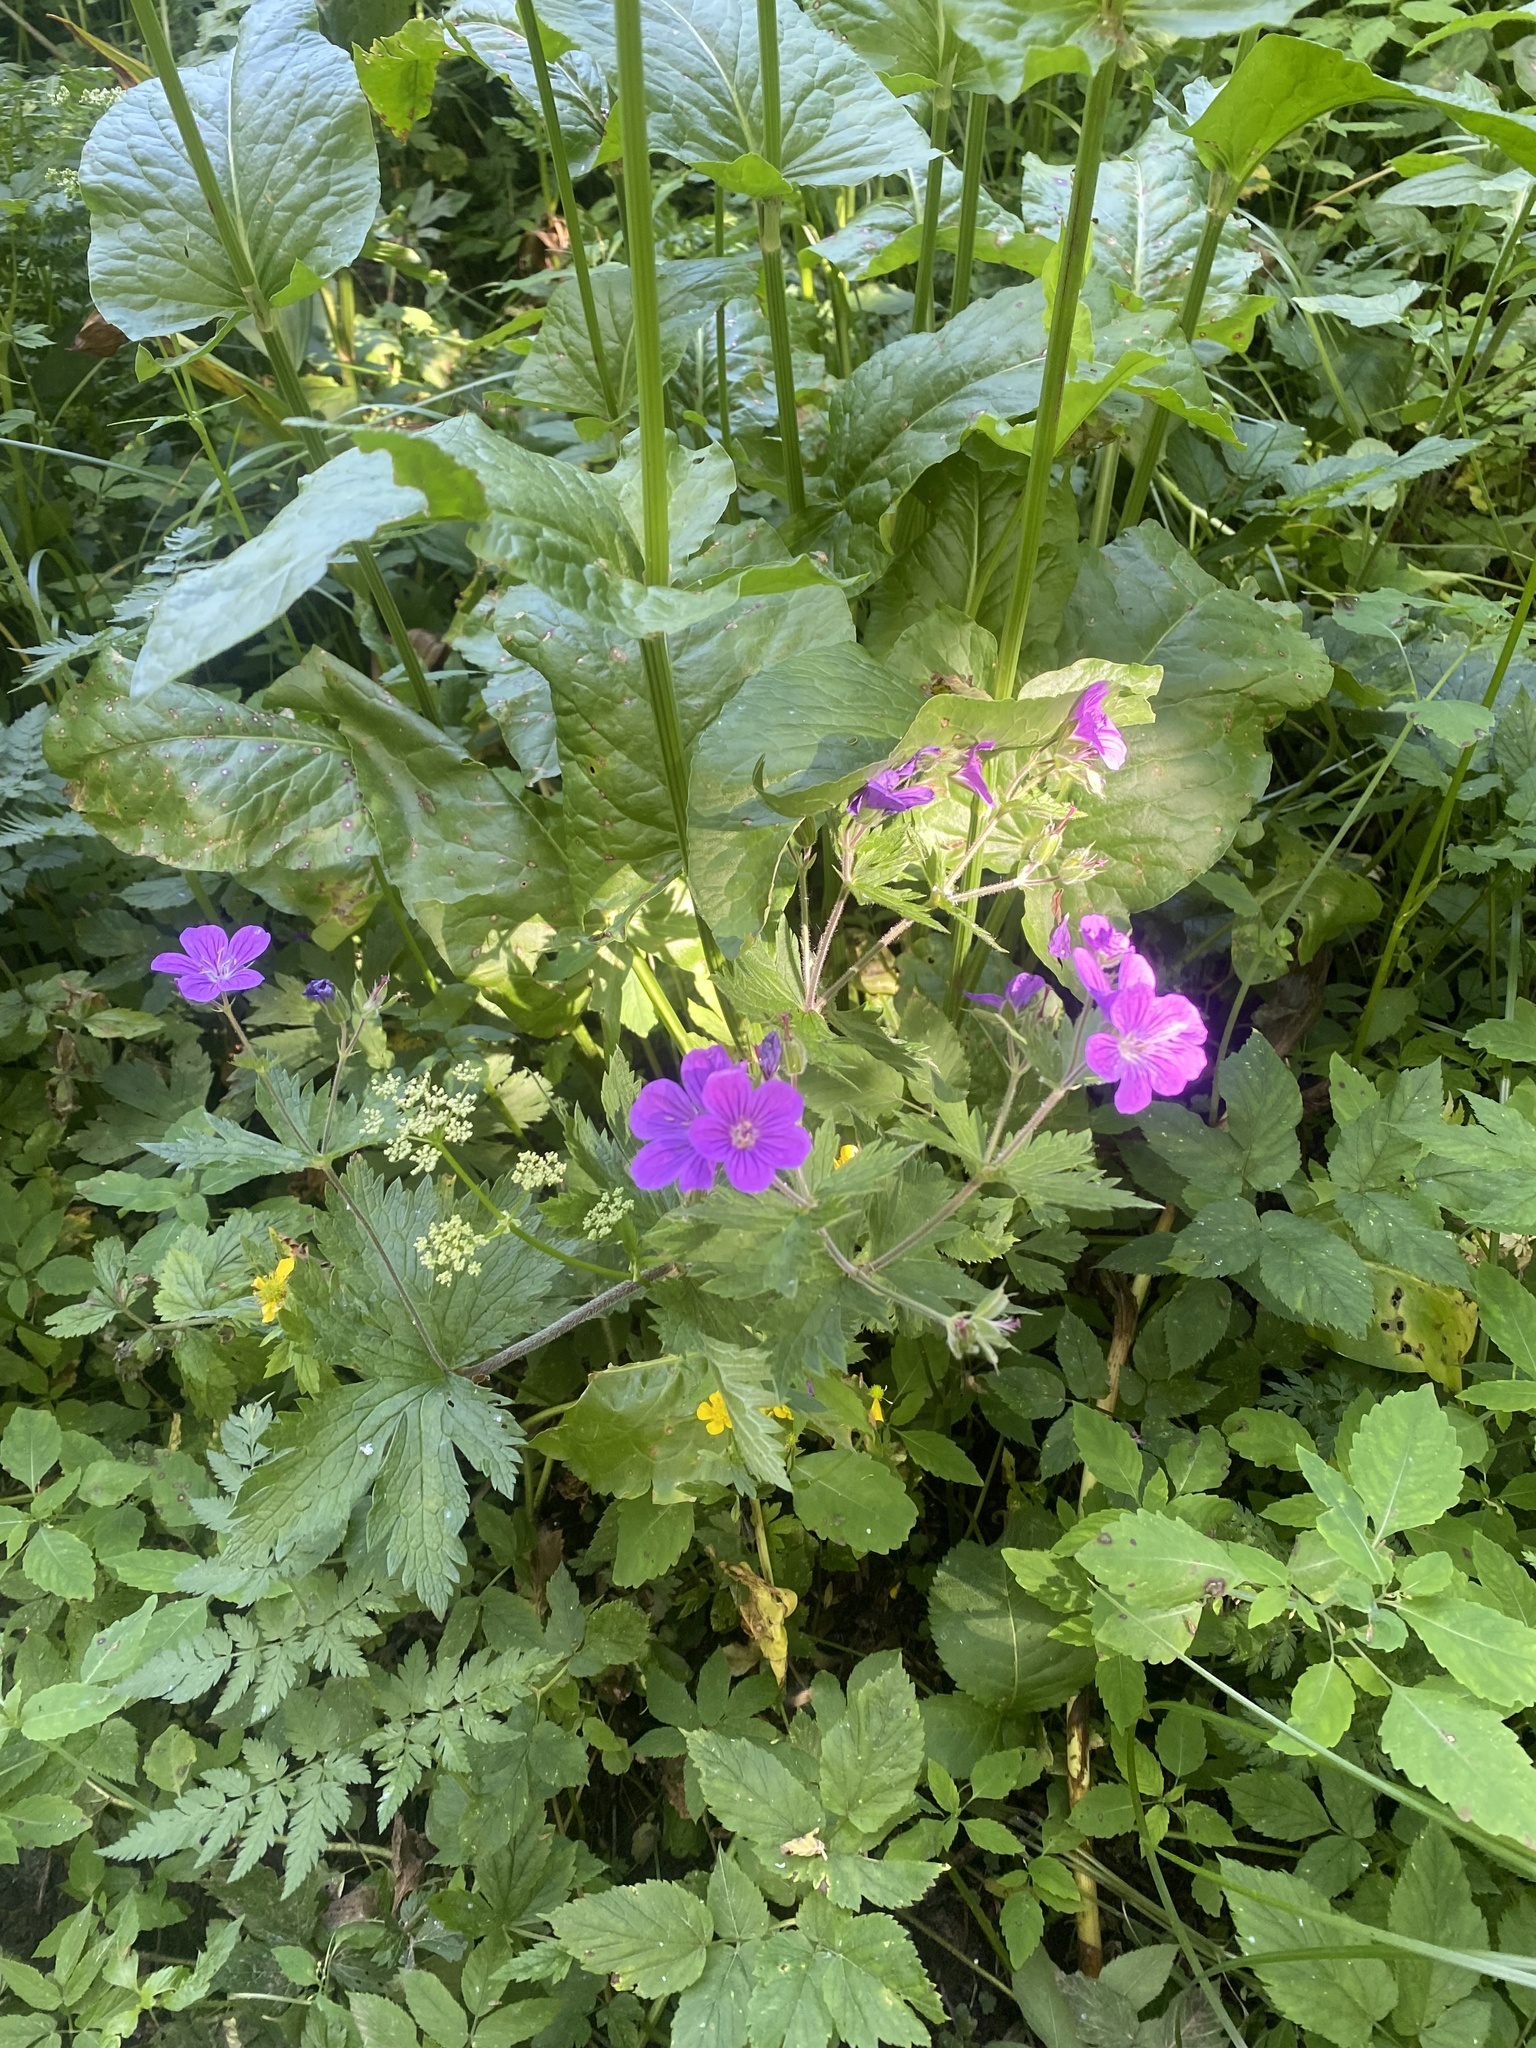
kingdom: Plantae
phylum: Tracheophyta
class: Magnoliopsida
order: Geraniales
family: Geraniaceae
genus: Geranium
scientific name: Geranium sylvaticum
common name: Wood crane's-bill
